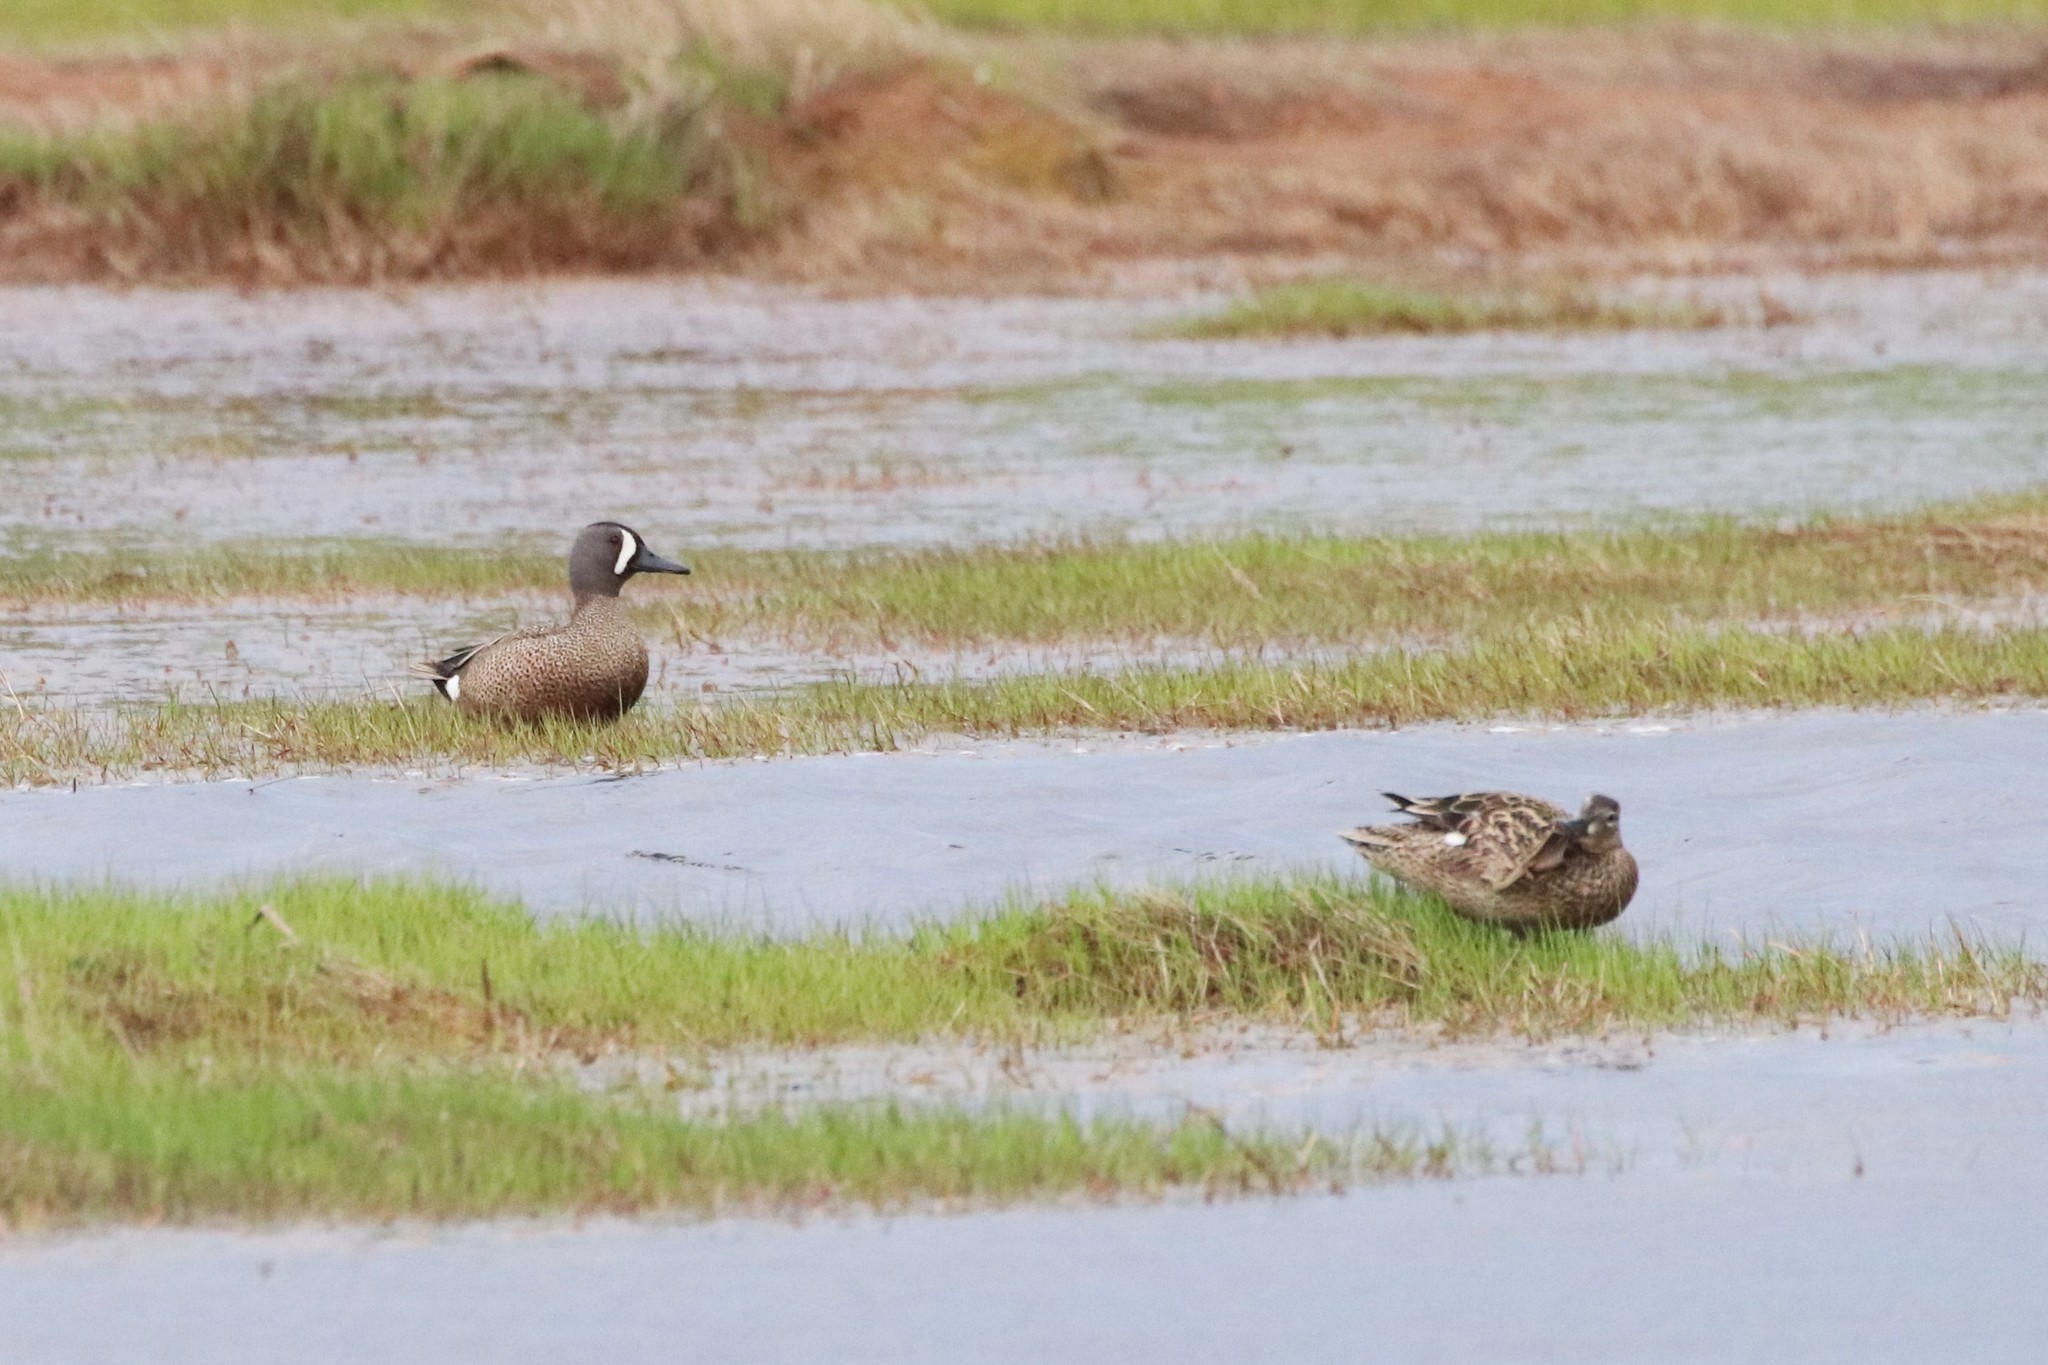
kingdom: Animalia
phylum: Chordata
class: Aves
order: Anseriformes
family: Anatidae
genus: Spatula
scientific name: Spatula discors
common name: Blue-winged teal
